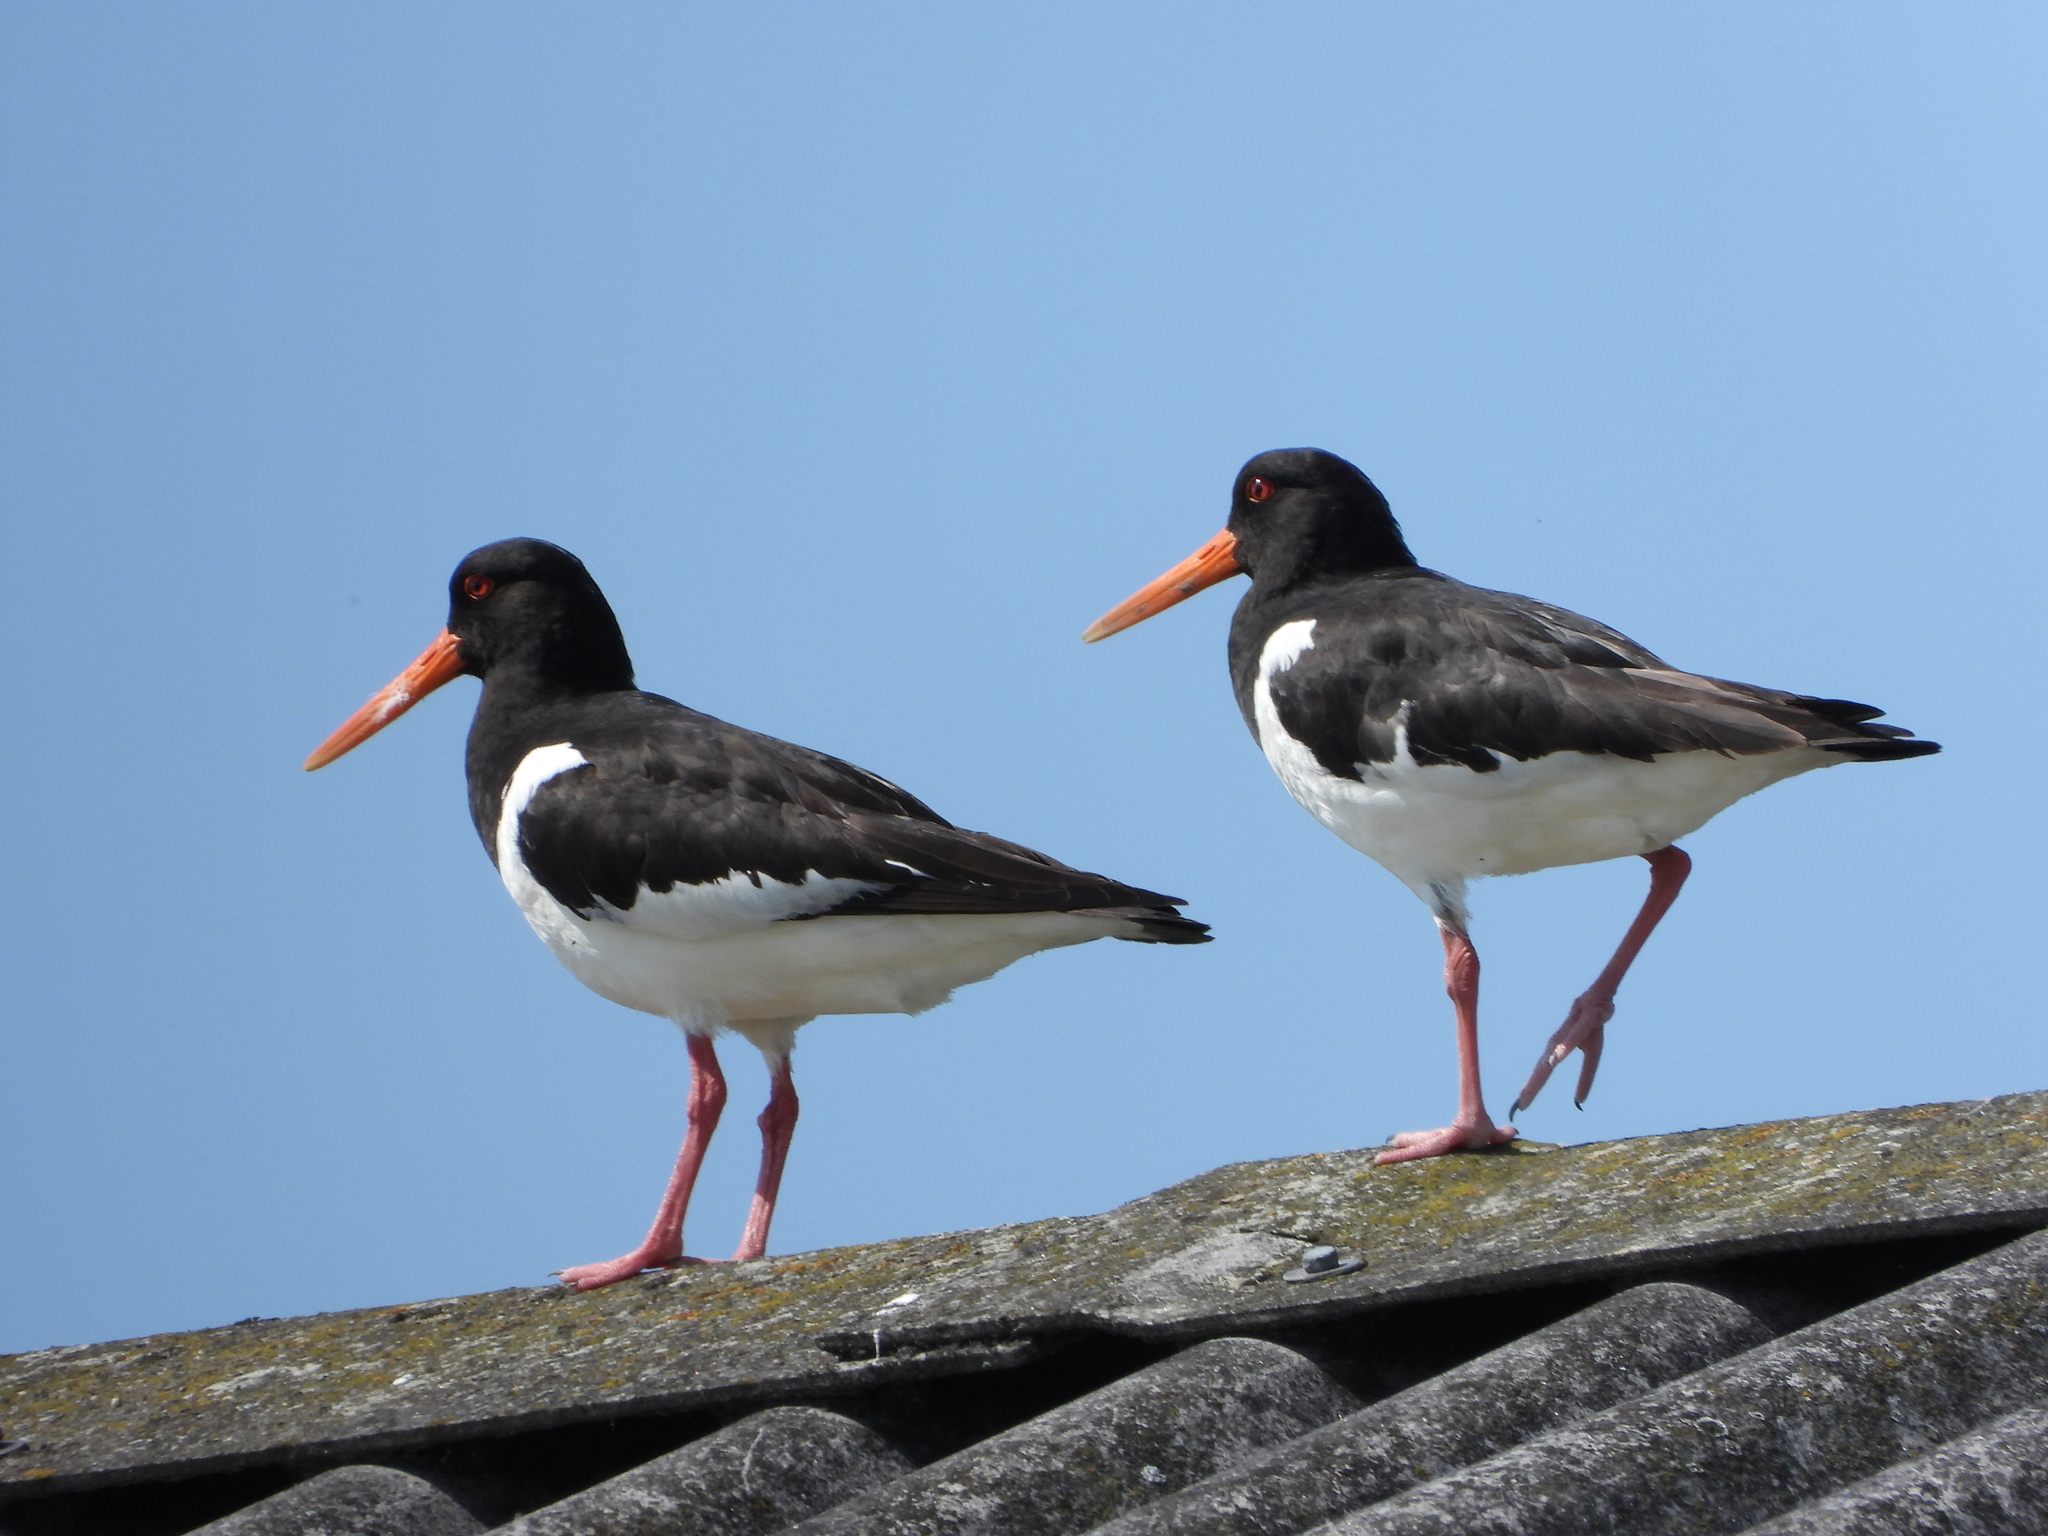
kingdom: Animalia
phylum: Chordata
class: Aves
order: Charadriiformes
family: Haematopodidae
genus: Haematopus
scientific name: Haematopus ostralegus
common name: Eurasian oystercatcher
